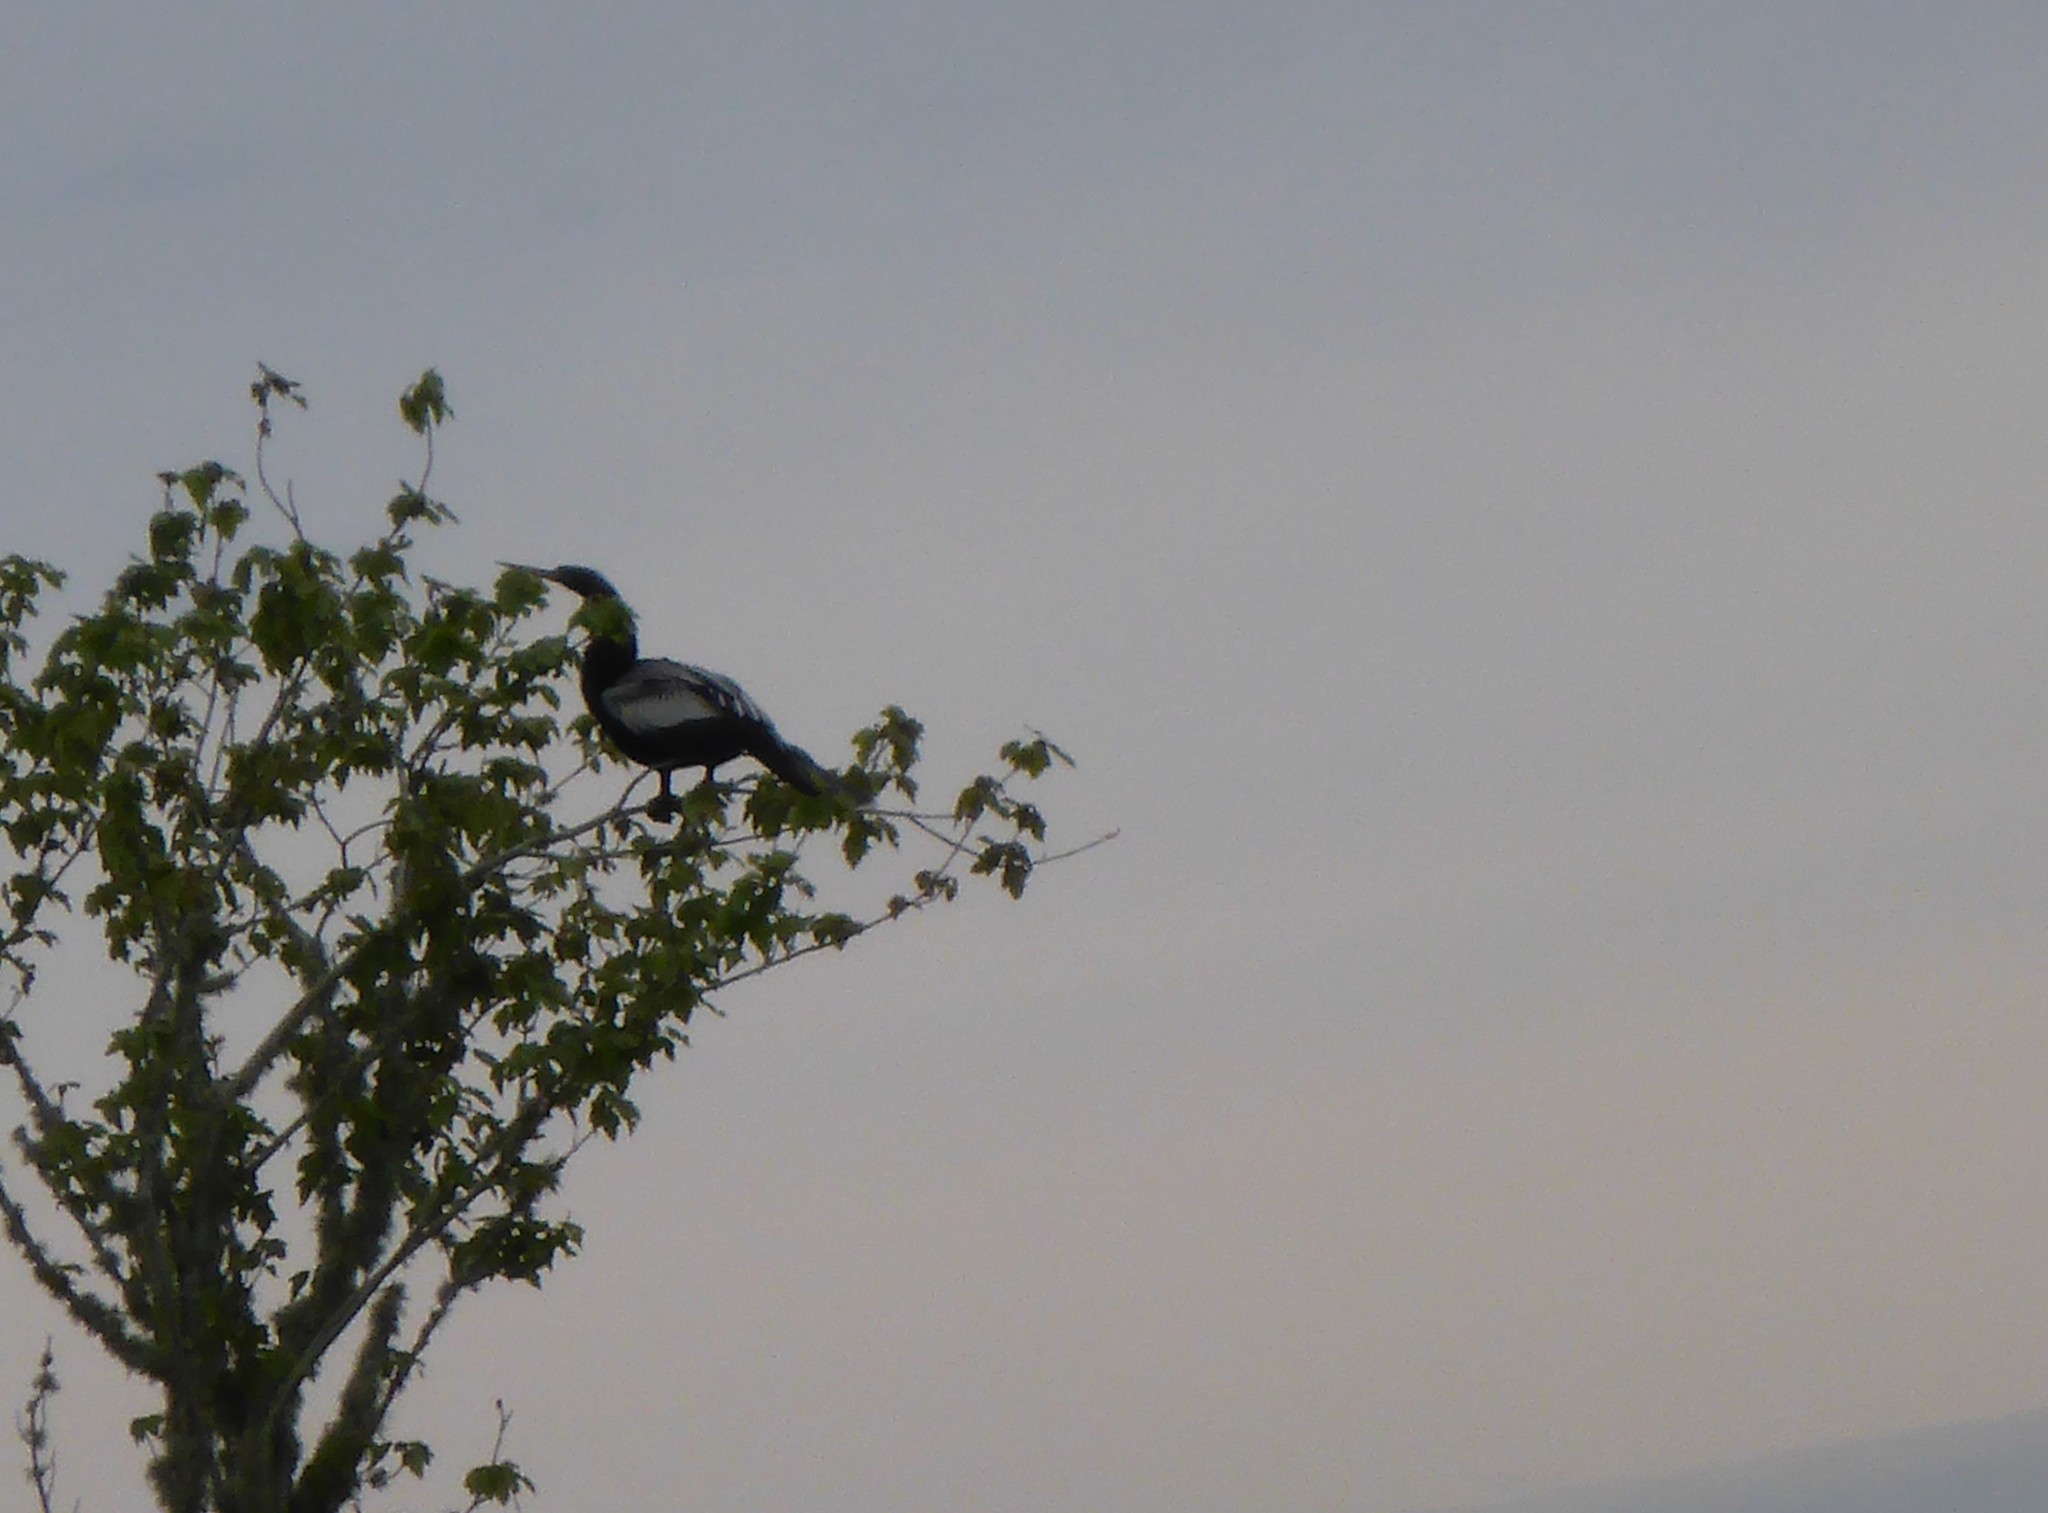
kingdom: Animalia
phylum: Chordata
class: Aves
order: Suliformes
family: Anhingidae
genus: Anhinga
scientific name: Anhinga anhinga
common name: Anhinga
